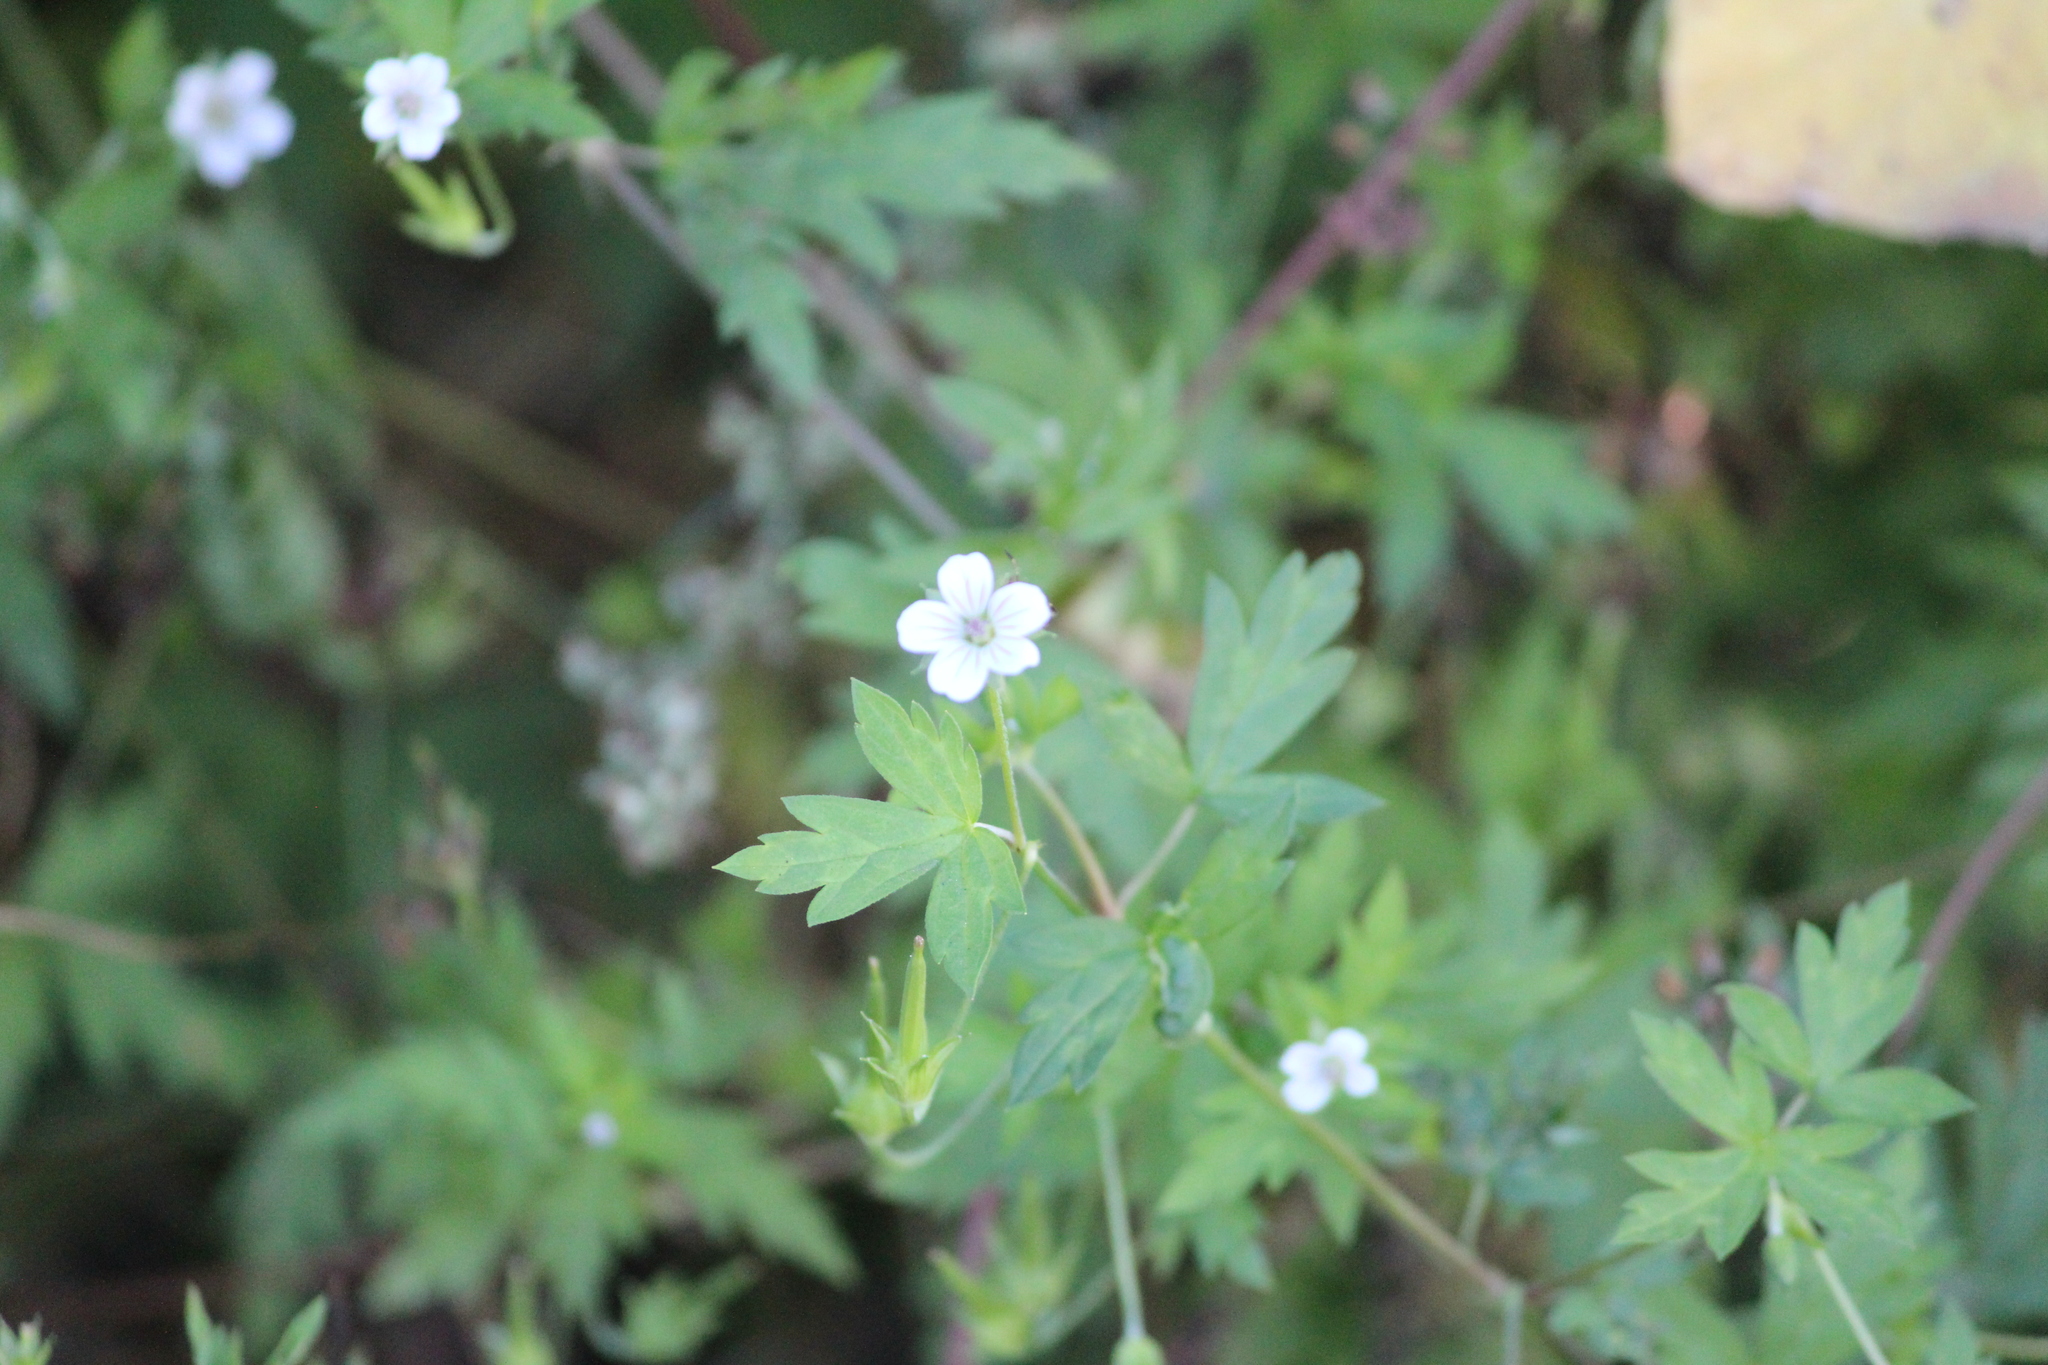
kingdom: Plantae
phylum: Tracheophyta
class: Magnoliopsida
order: Geraniales
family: Geraniaceae
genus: Geranium
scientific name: Geranium sibiricum
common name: Siberian crane's-bill
